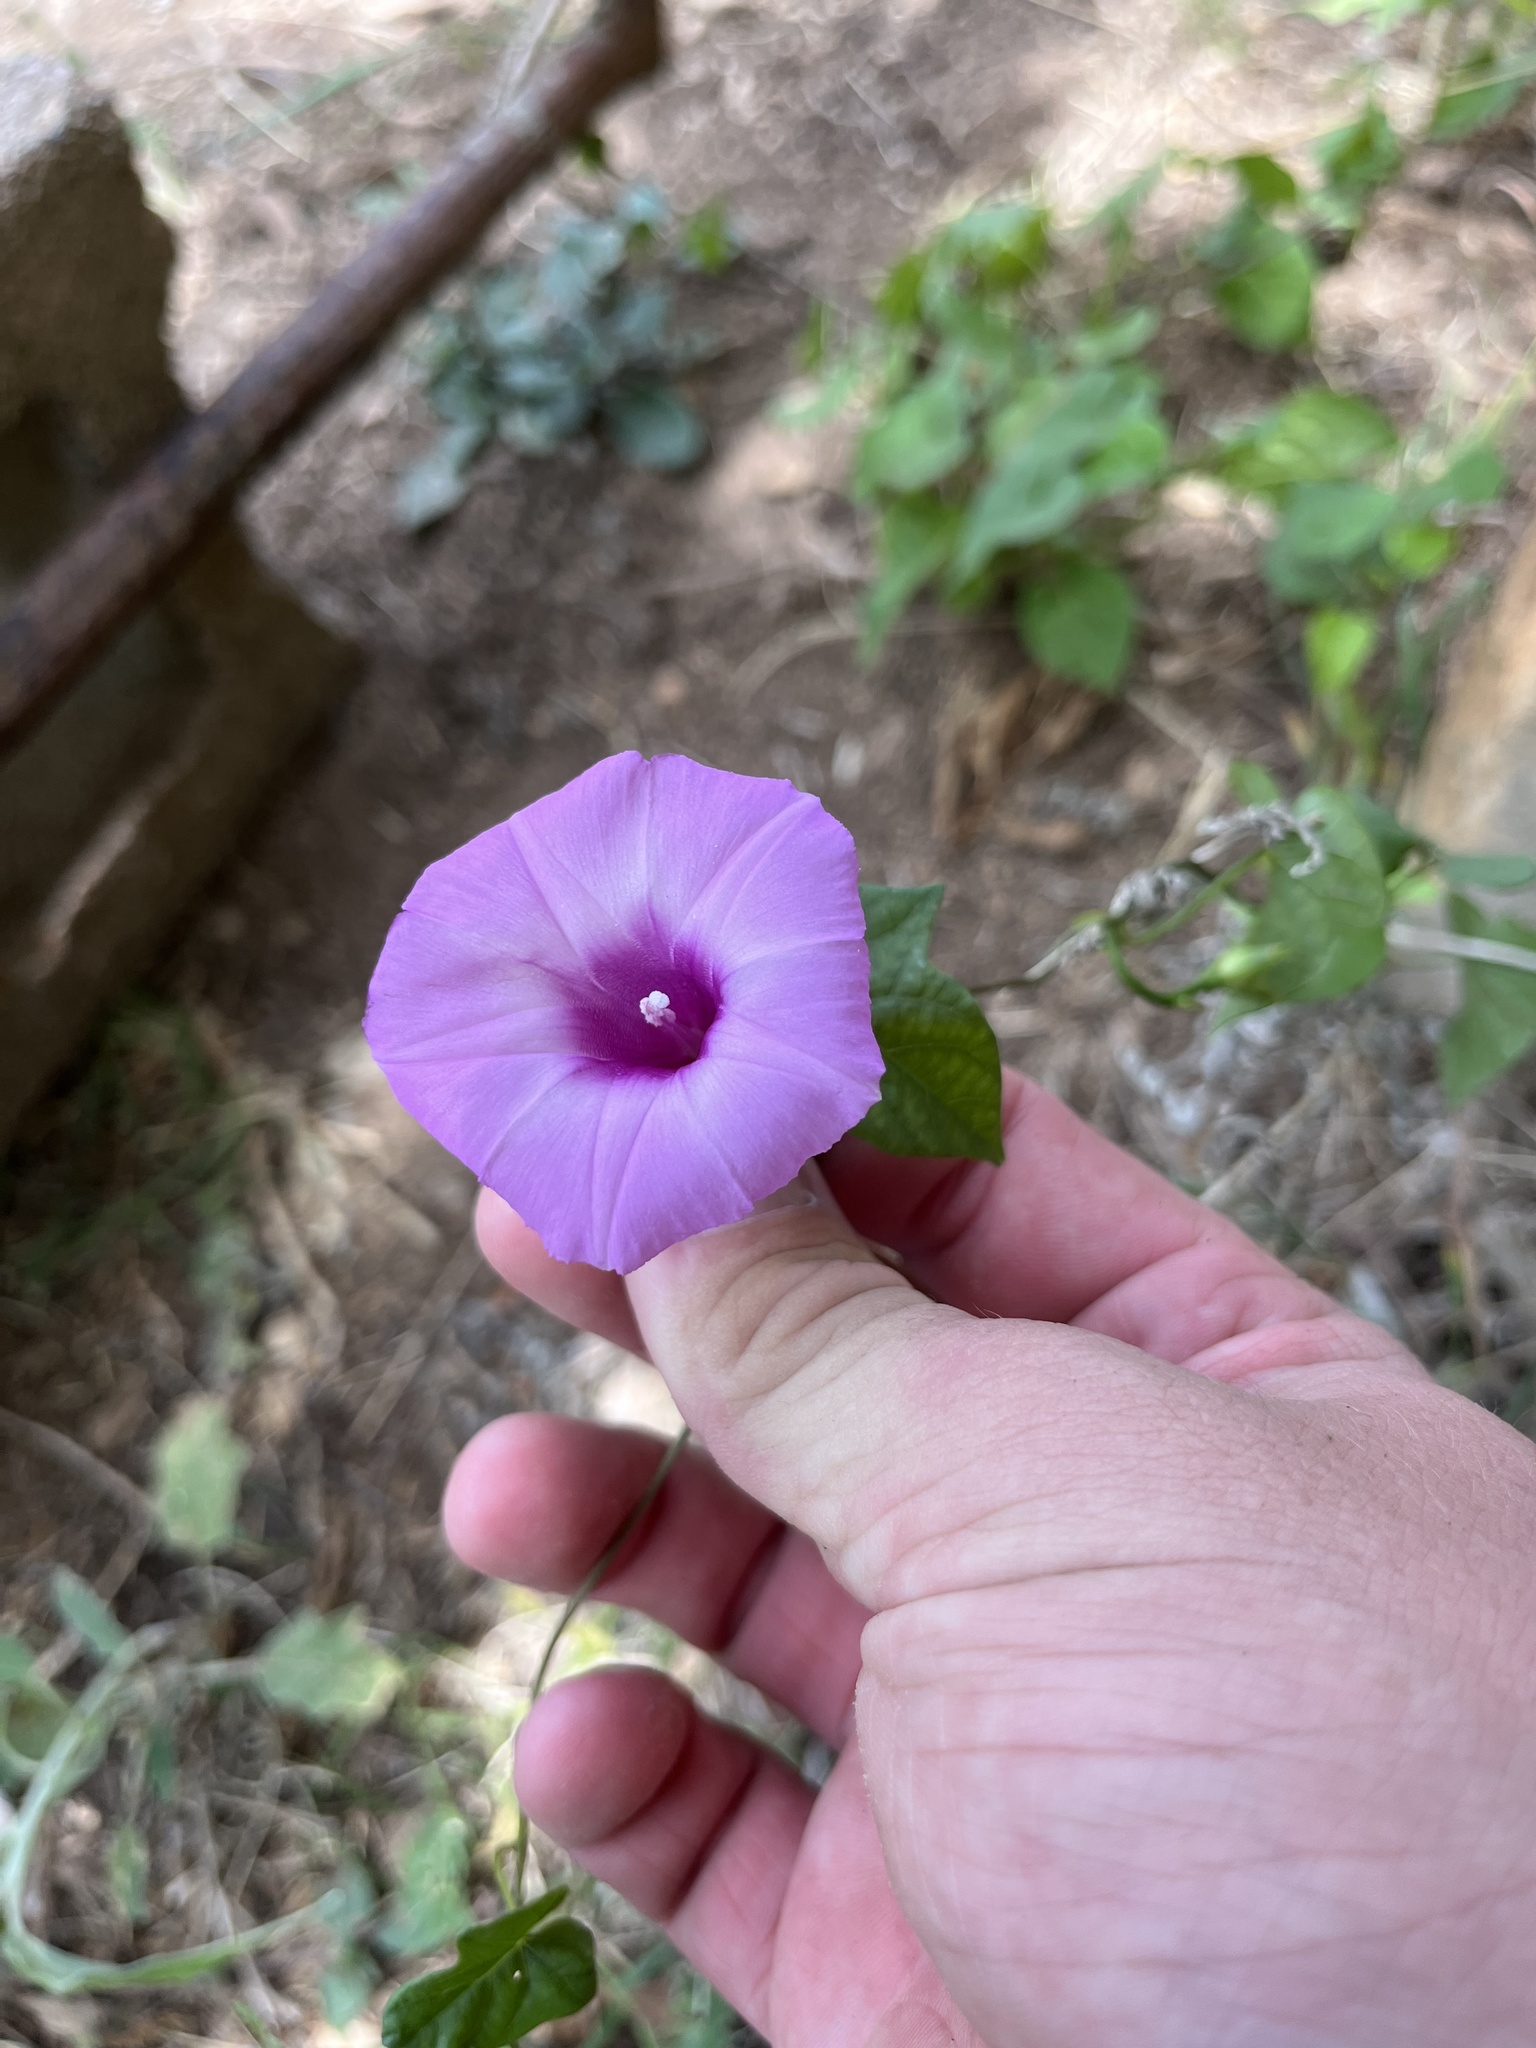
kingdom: Plantae
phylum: Tracheophyta
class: Magnoliopsida
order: Solanales
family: Convolvulaceae
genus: Ipomoea
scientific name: Ipomoea cordatotriloba
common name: Cotton morning glory
